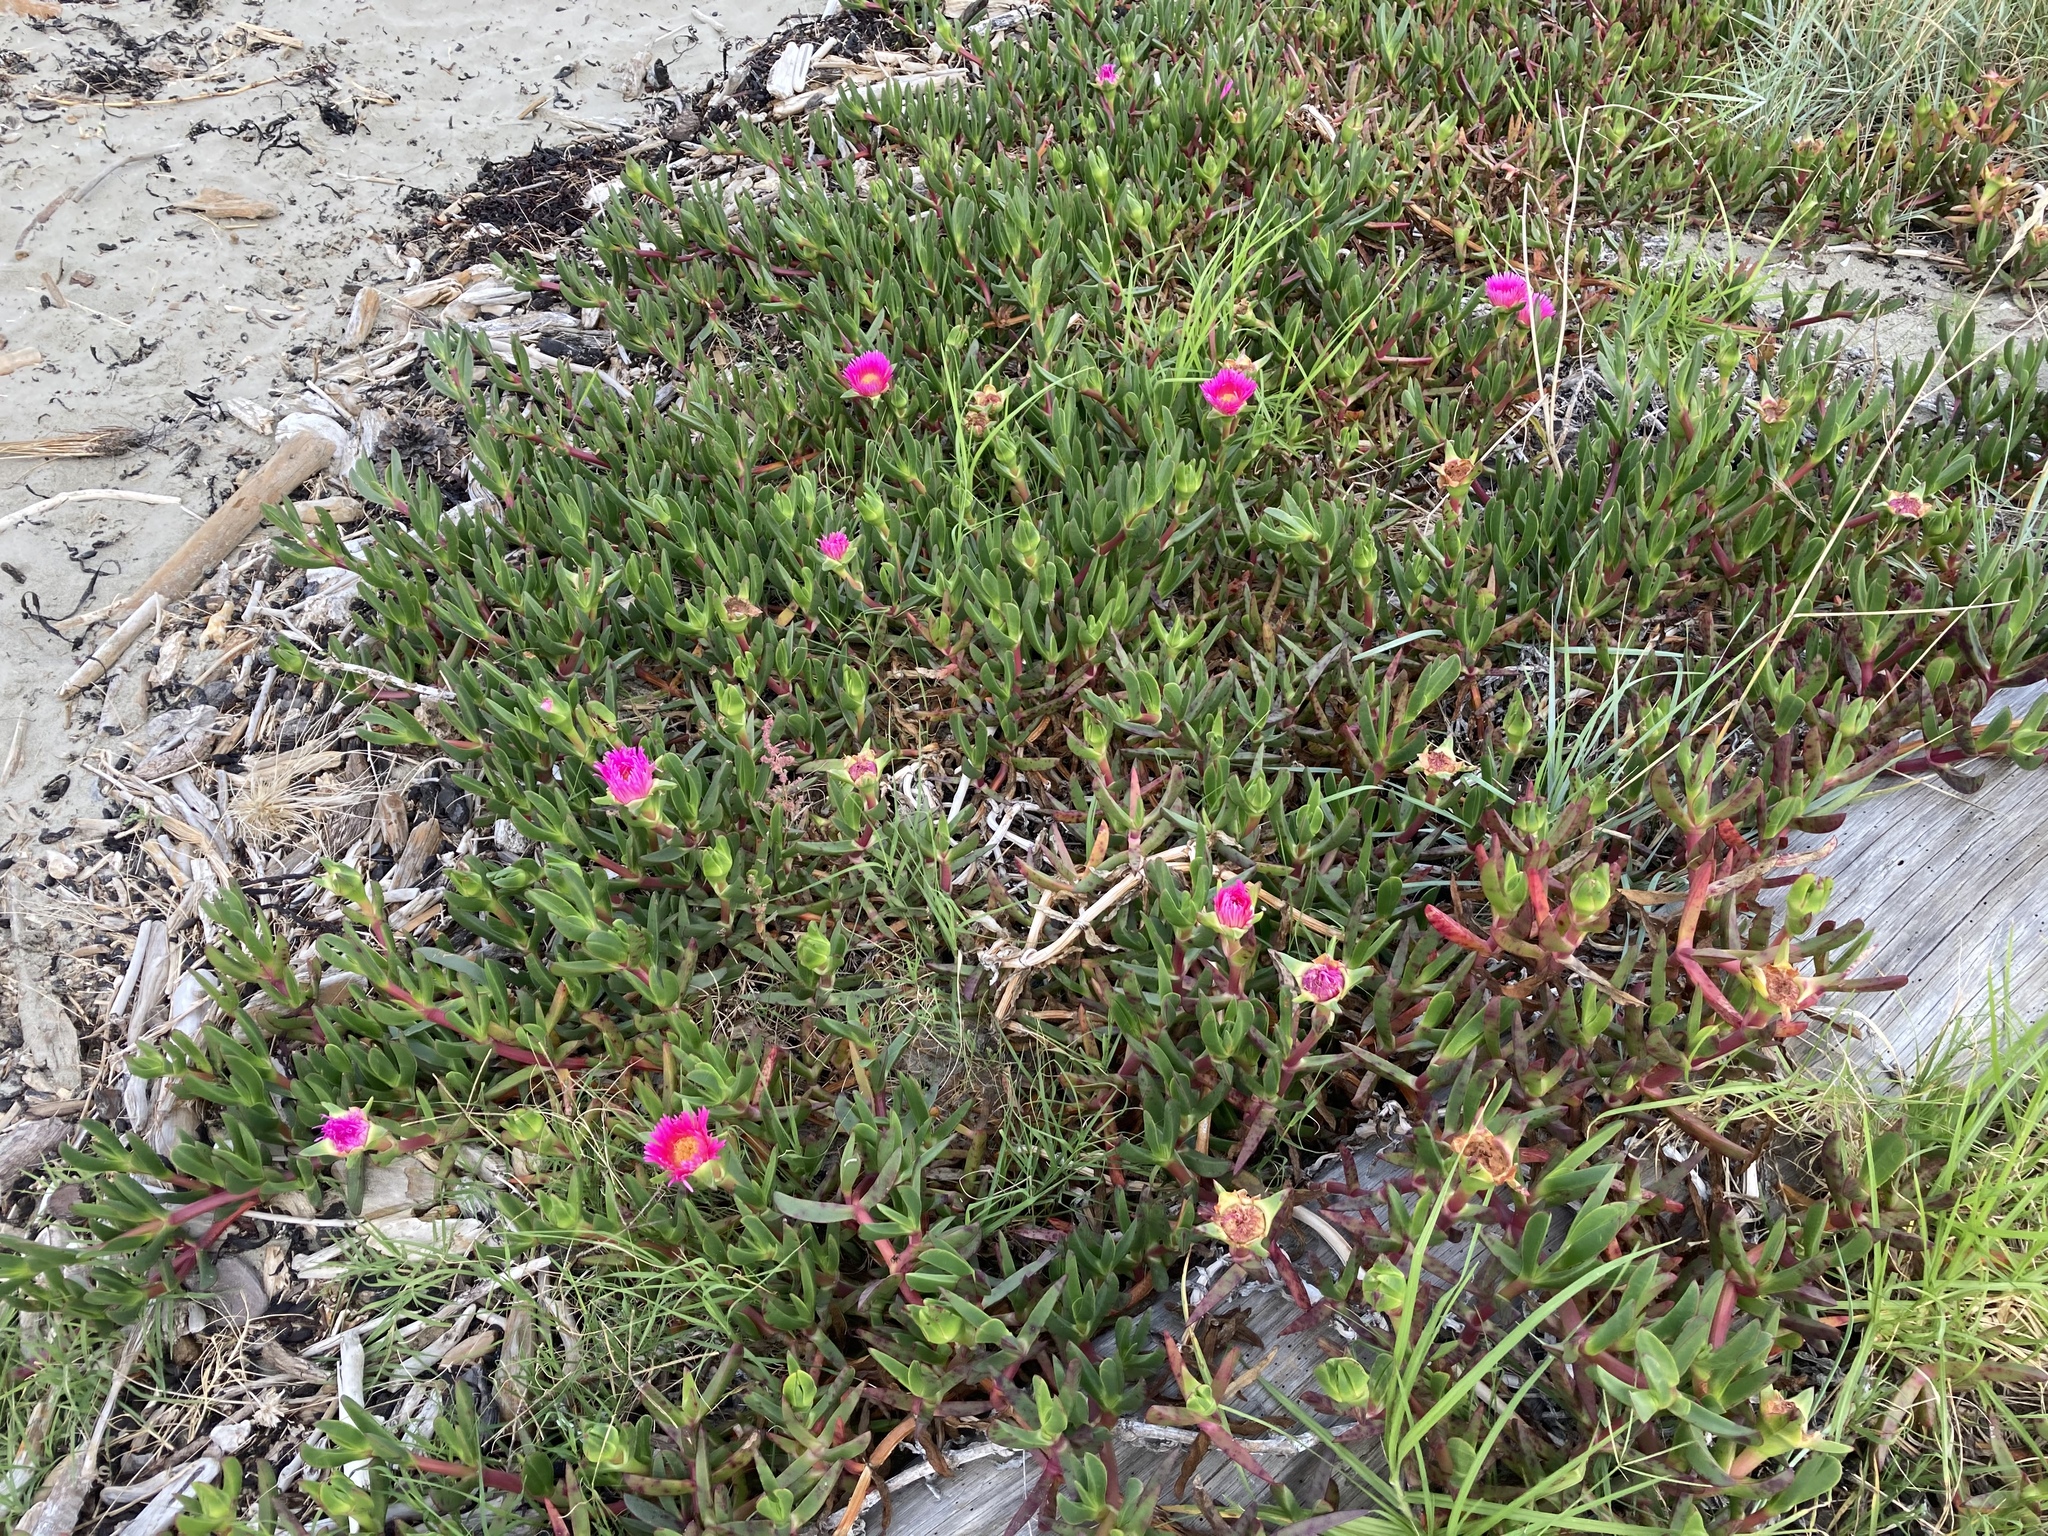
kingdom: Plantae
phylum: Tracheophyta
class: Magnoliopsida
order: Caryophyllales
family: Aizoaceae
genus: Carpobrotus
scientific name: Carpobrotus chilensis
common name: Sea fig
